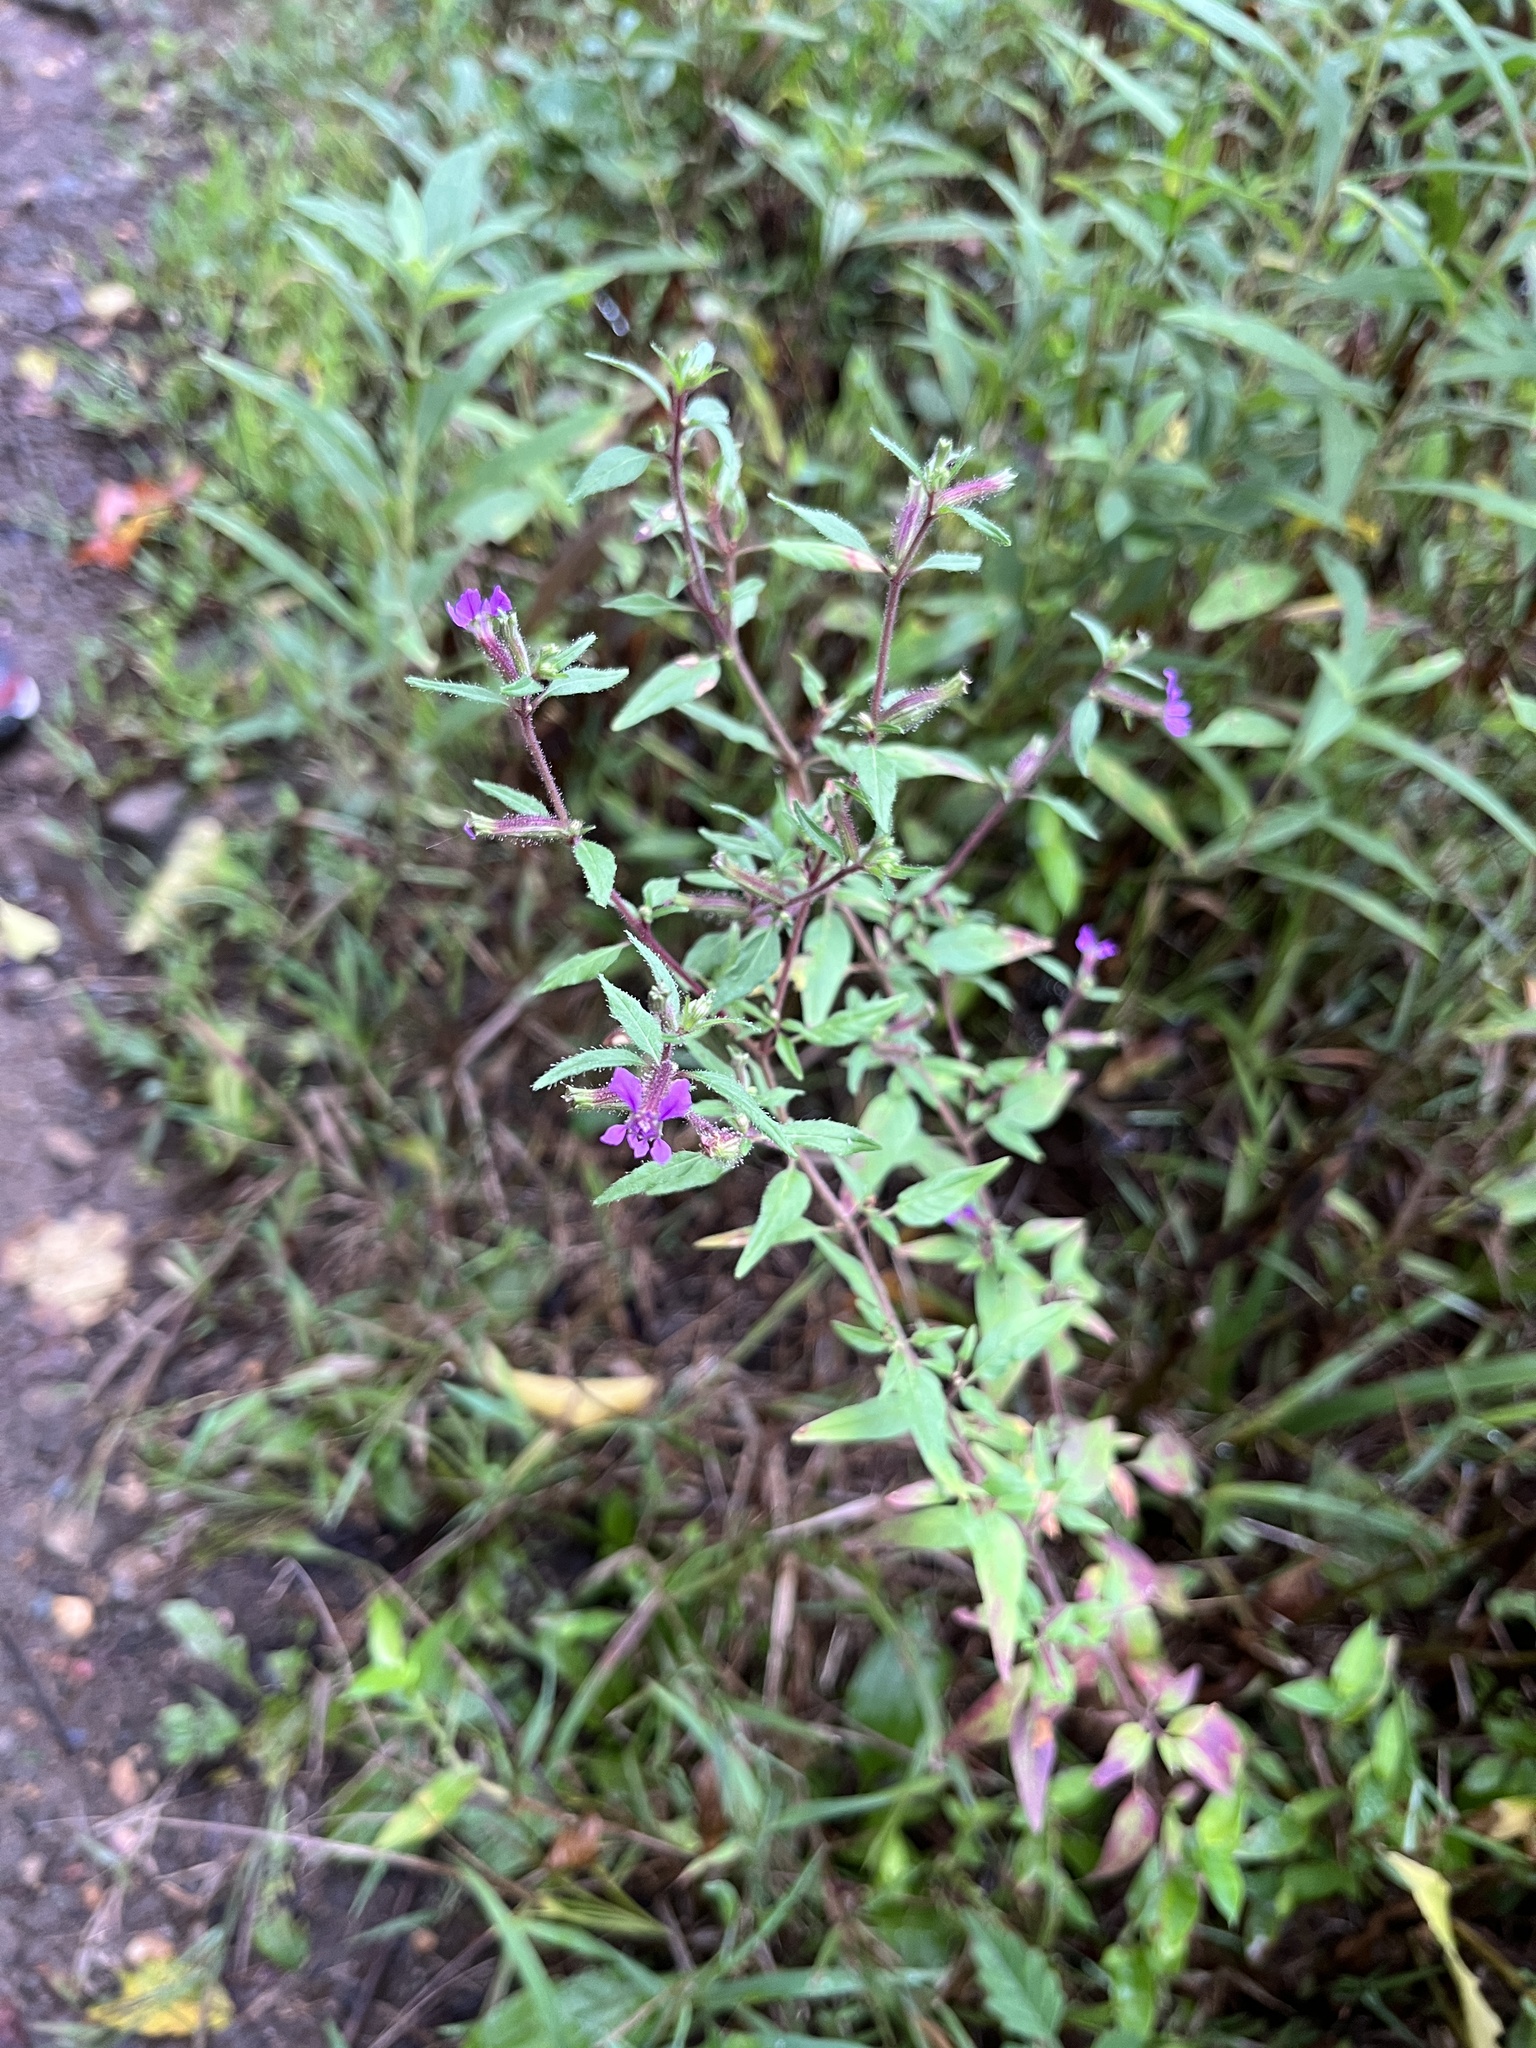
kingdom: Plantae
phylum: Tracheophyta
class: Magnoliopsida
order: Myrtales
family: Lythraceae
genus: Cuphea
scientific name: Cuphea viscosissima
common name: Clammy cuphea
